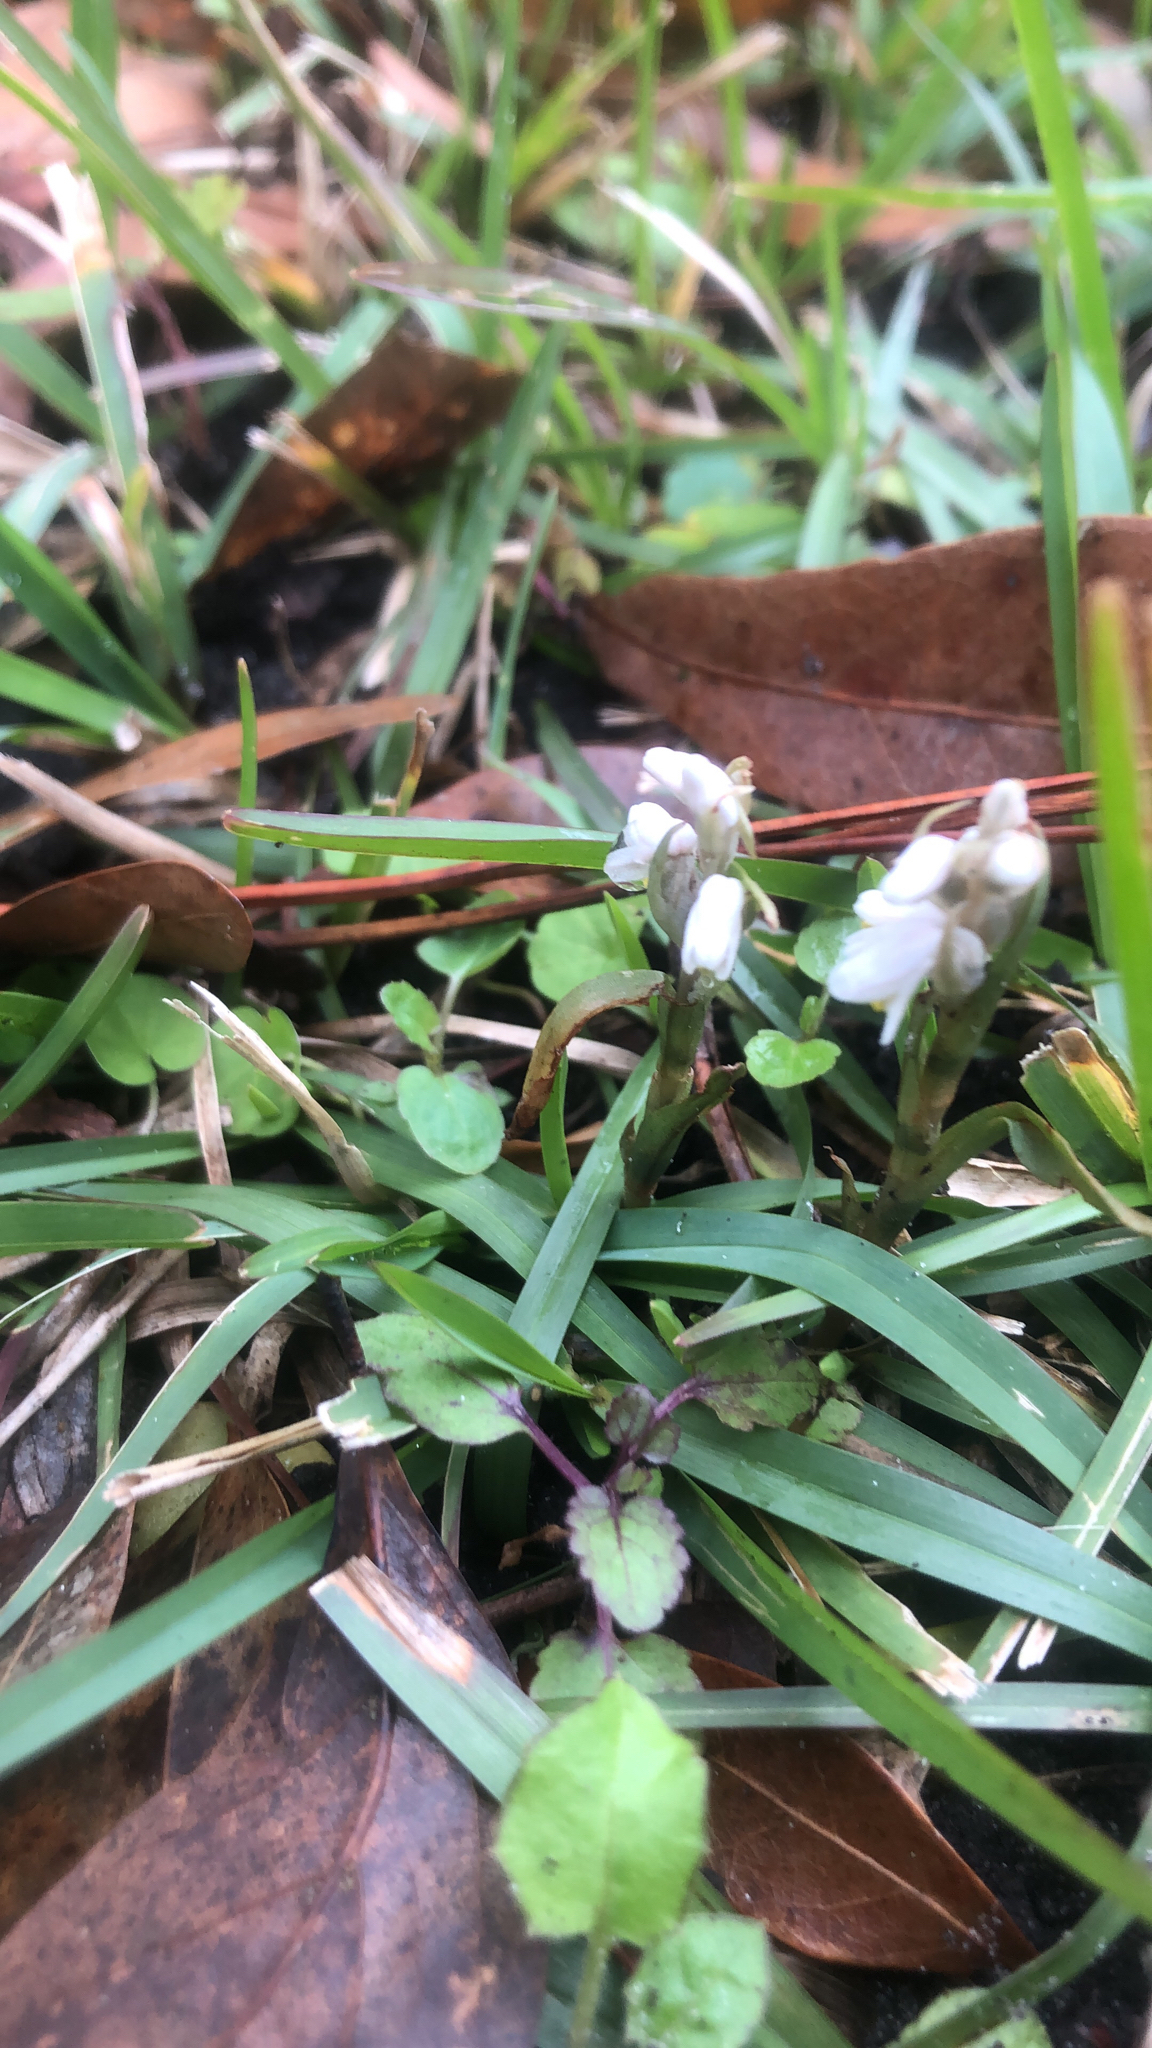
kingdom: Plantae
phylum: Tracheophyta
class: Liliopsida
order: Asparagales
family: Orchidaceae
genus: Zeuxine
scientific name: Zeuxine strateumatica
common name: Soldier's orchid
